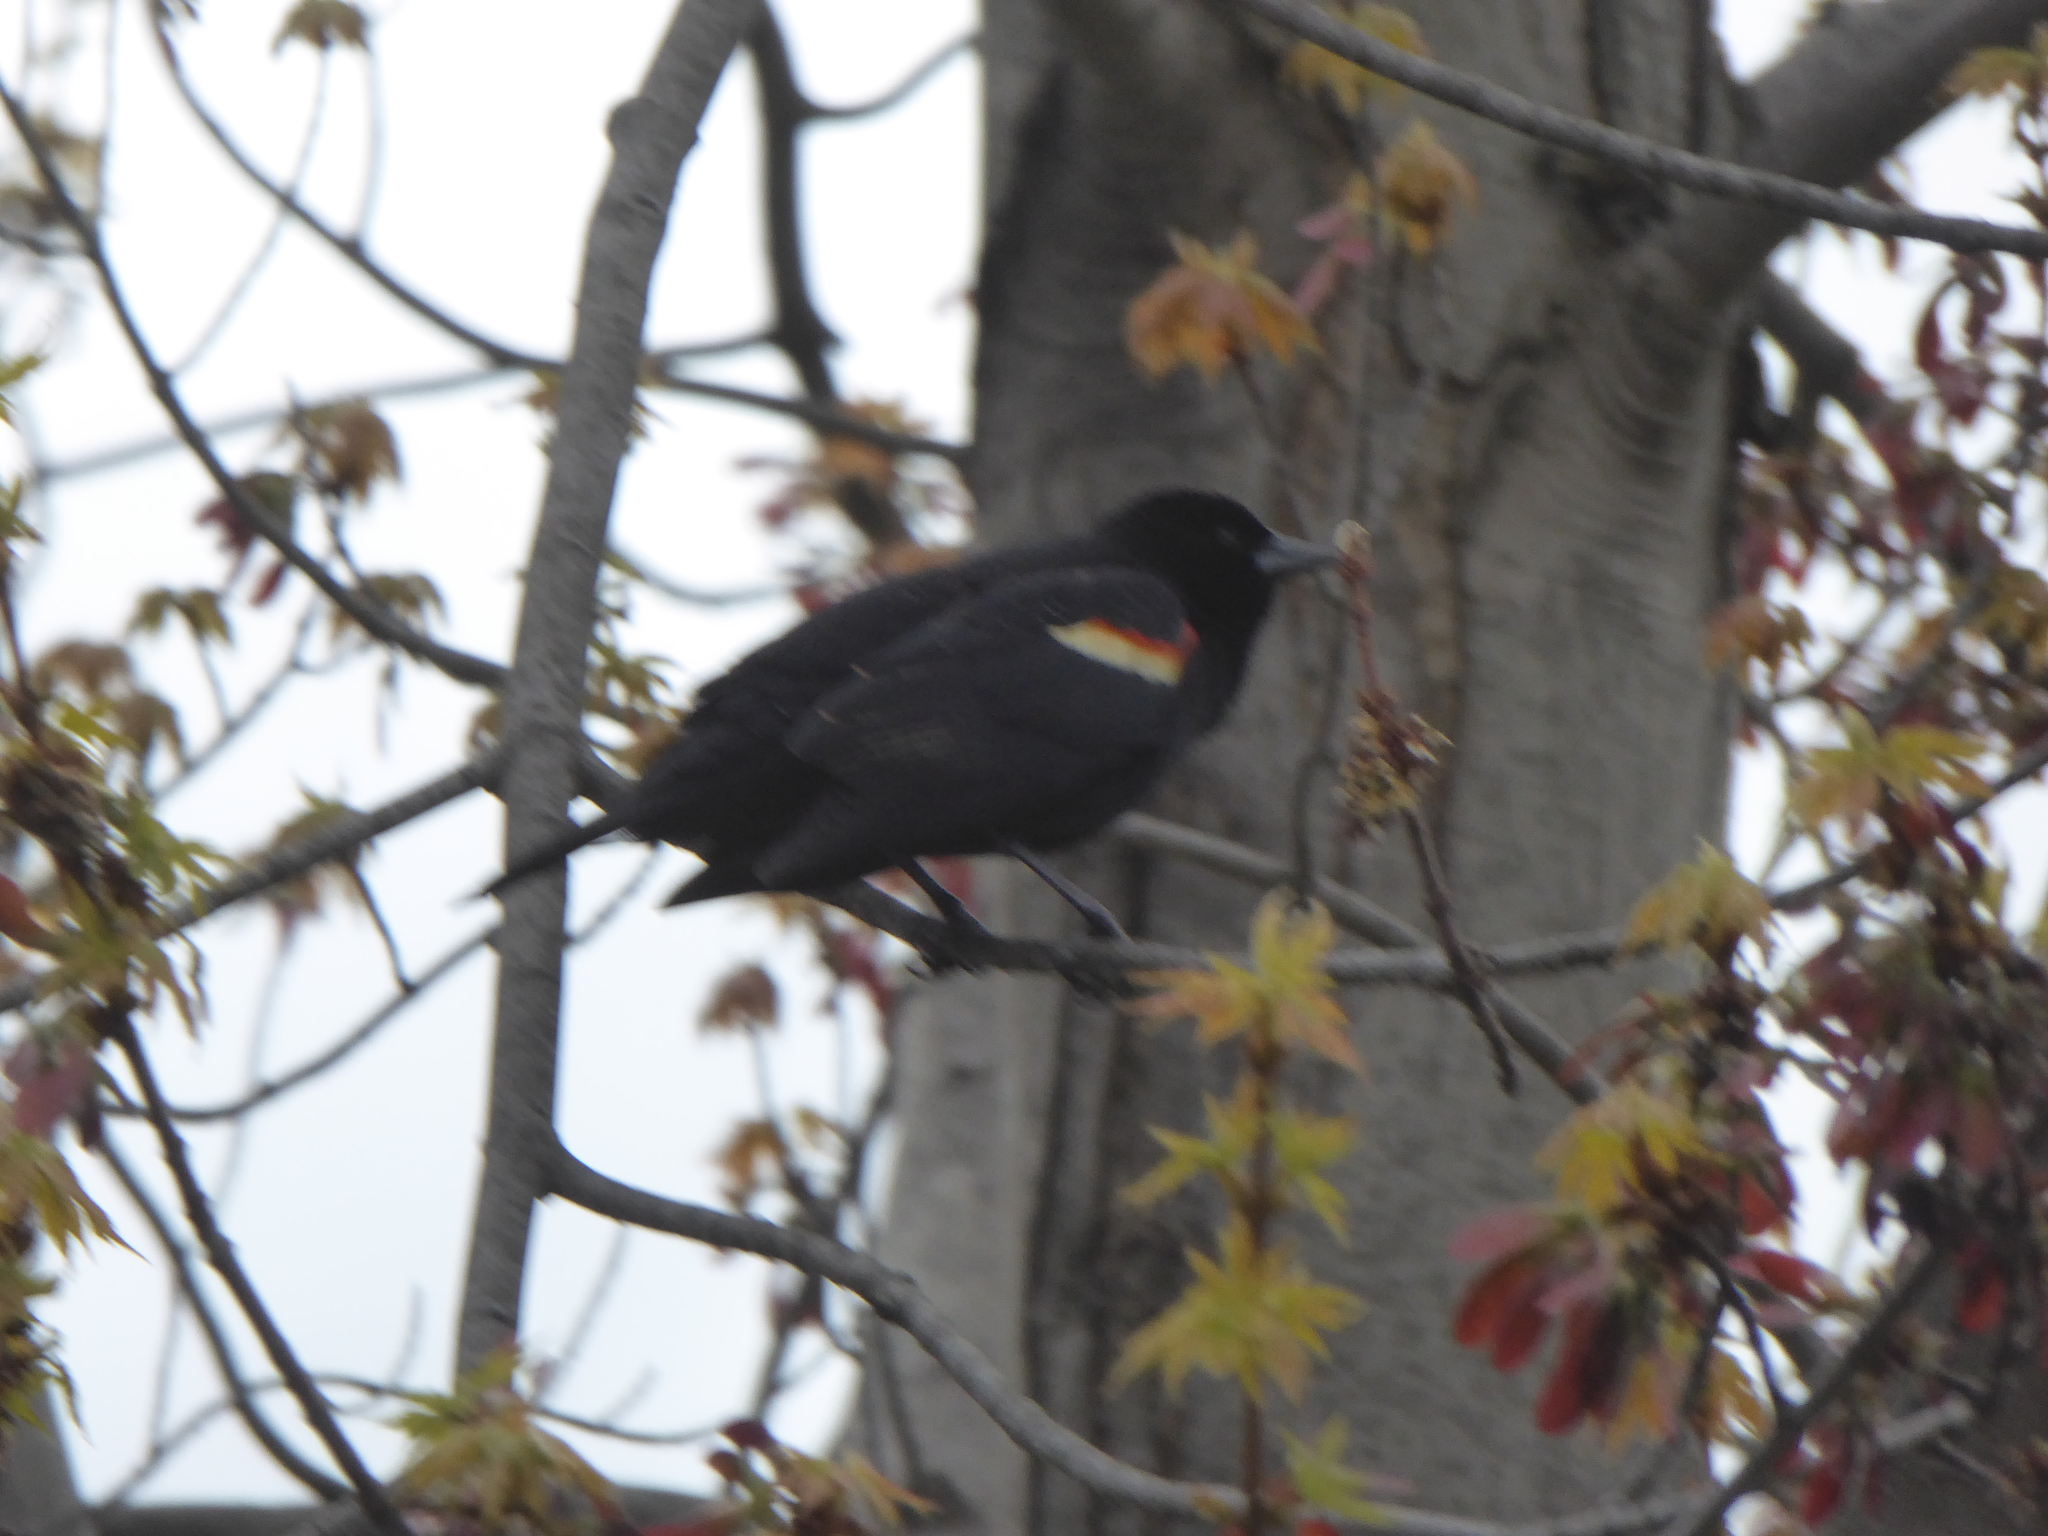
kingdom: Animalia
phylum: Chordata
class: Aves
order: Passeriformes
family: Icteridae
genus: Agelaius
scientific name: Agelaius phoeniceus
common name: Red-winged blackbird
